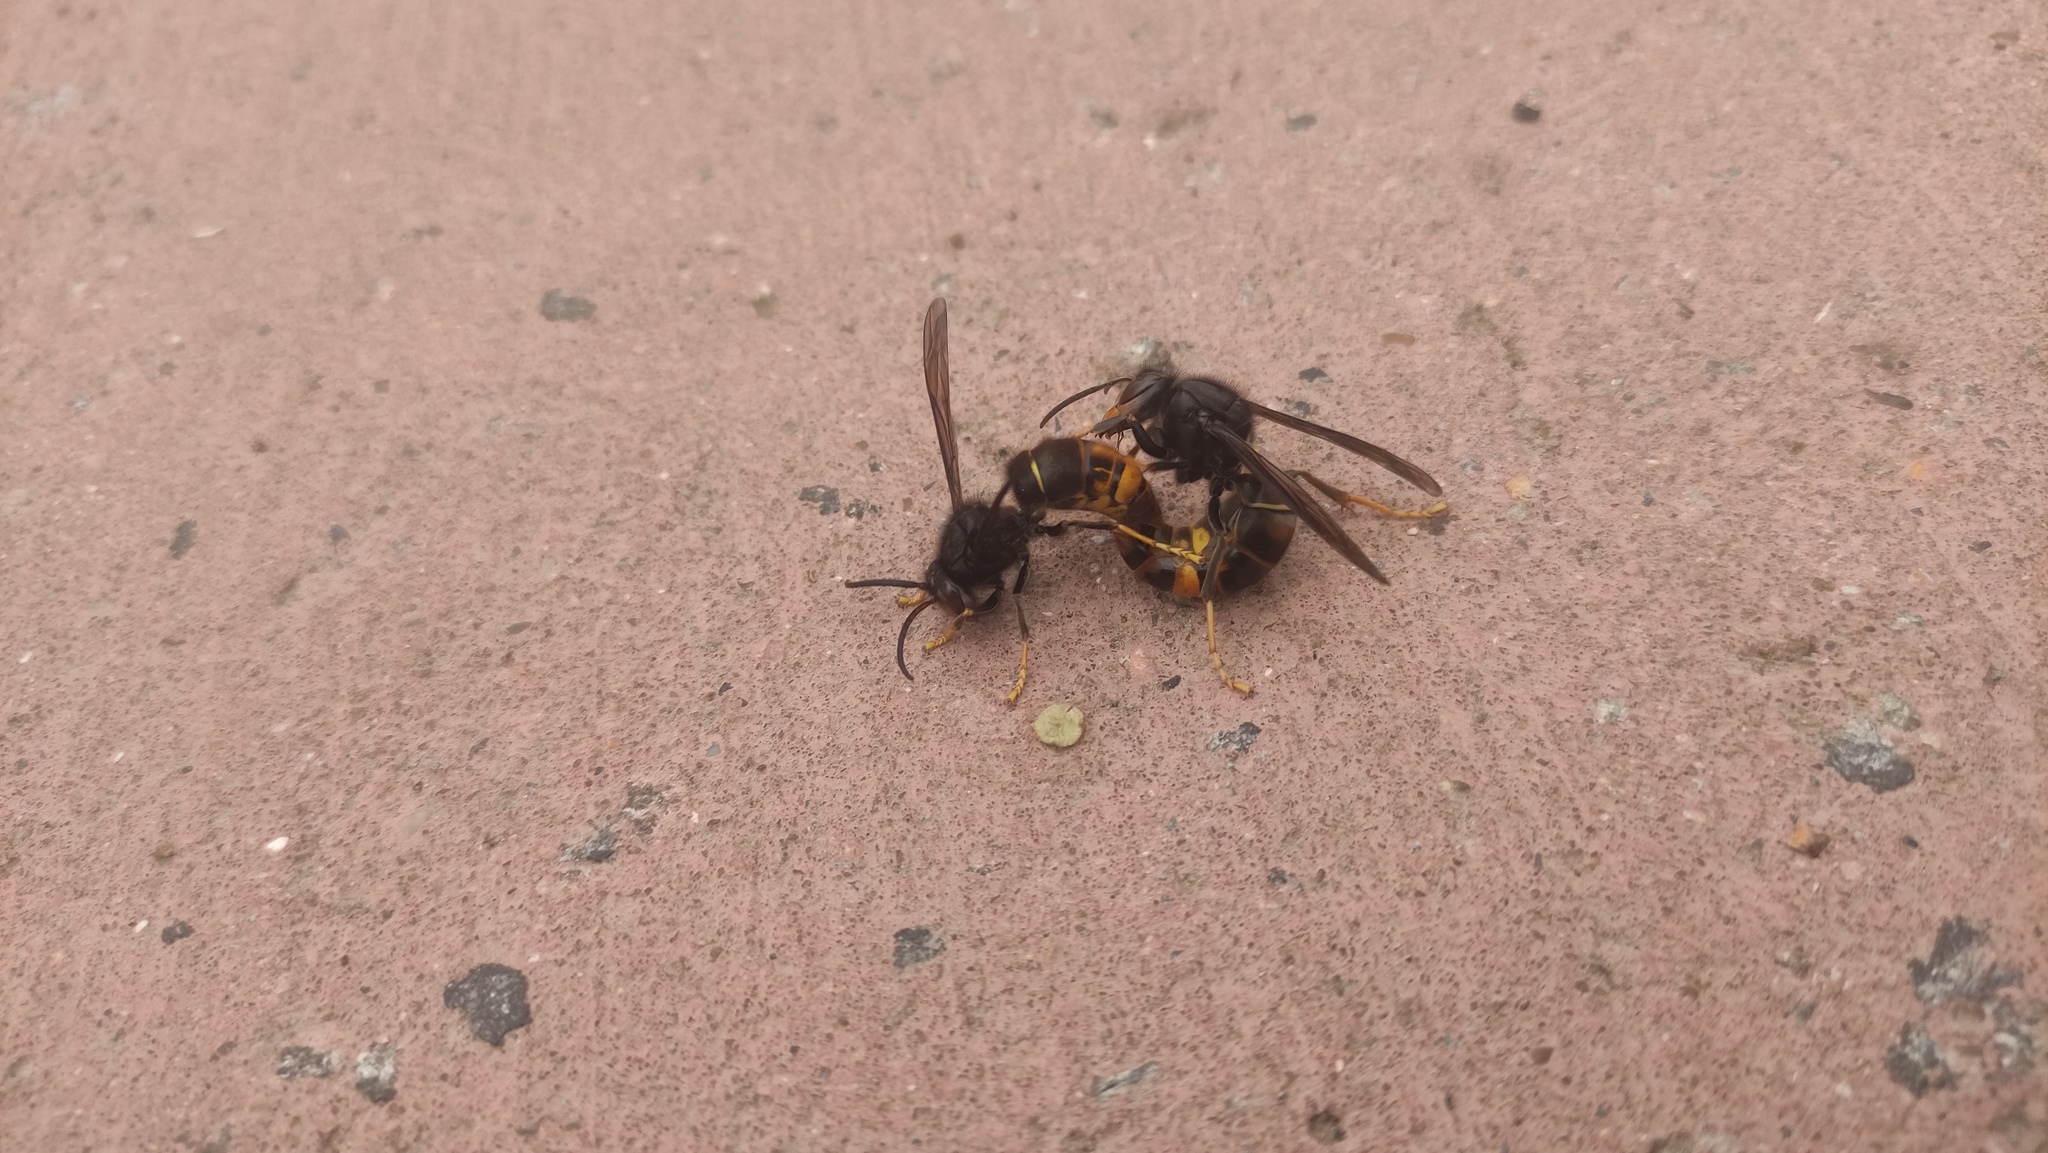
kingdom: Animalia
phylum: Arthropoda
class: Insecta
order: Hymenoptera
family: Vespidae
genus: Vespa
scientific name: Vespa velutina
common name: Asian hornet
